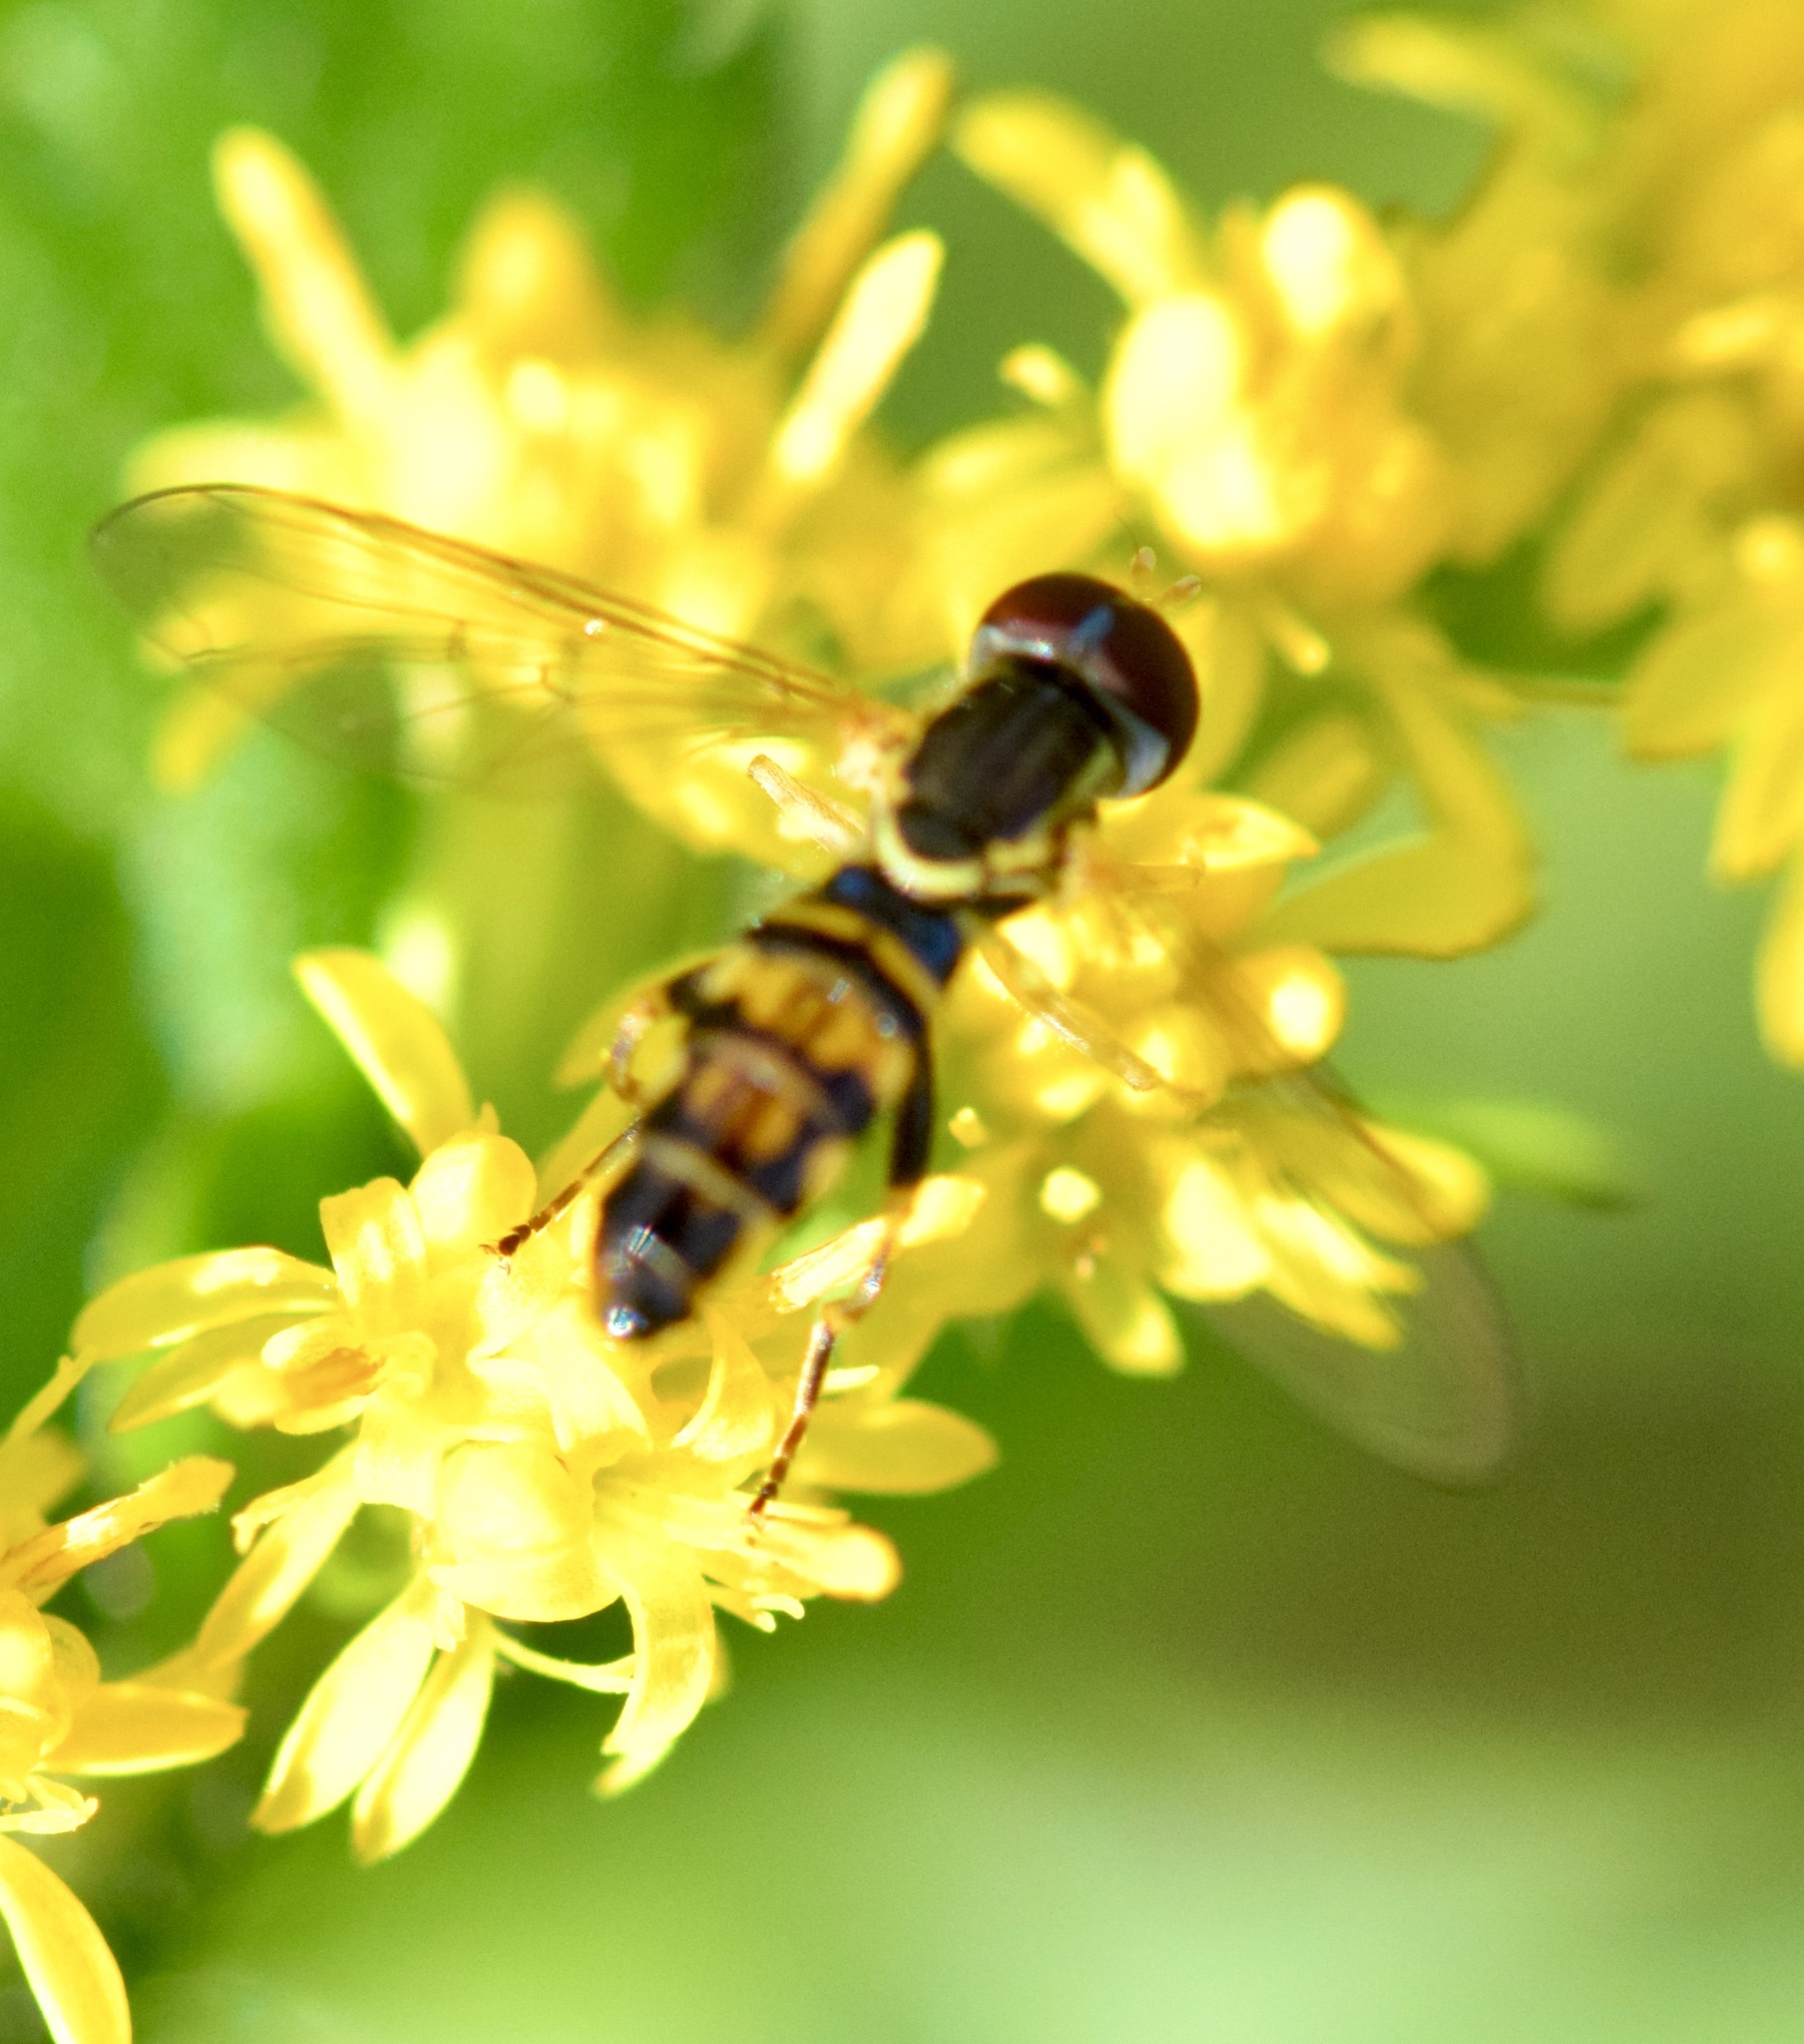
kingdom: Animalia
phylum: Arthropoda
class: Insecta
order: Diptera
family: Syrphidae
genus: Toxomerus
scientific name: Toxomerus geminatus
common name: Eastern calligrapher
